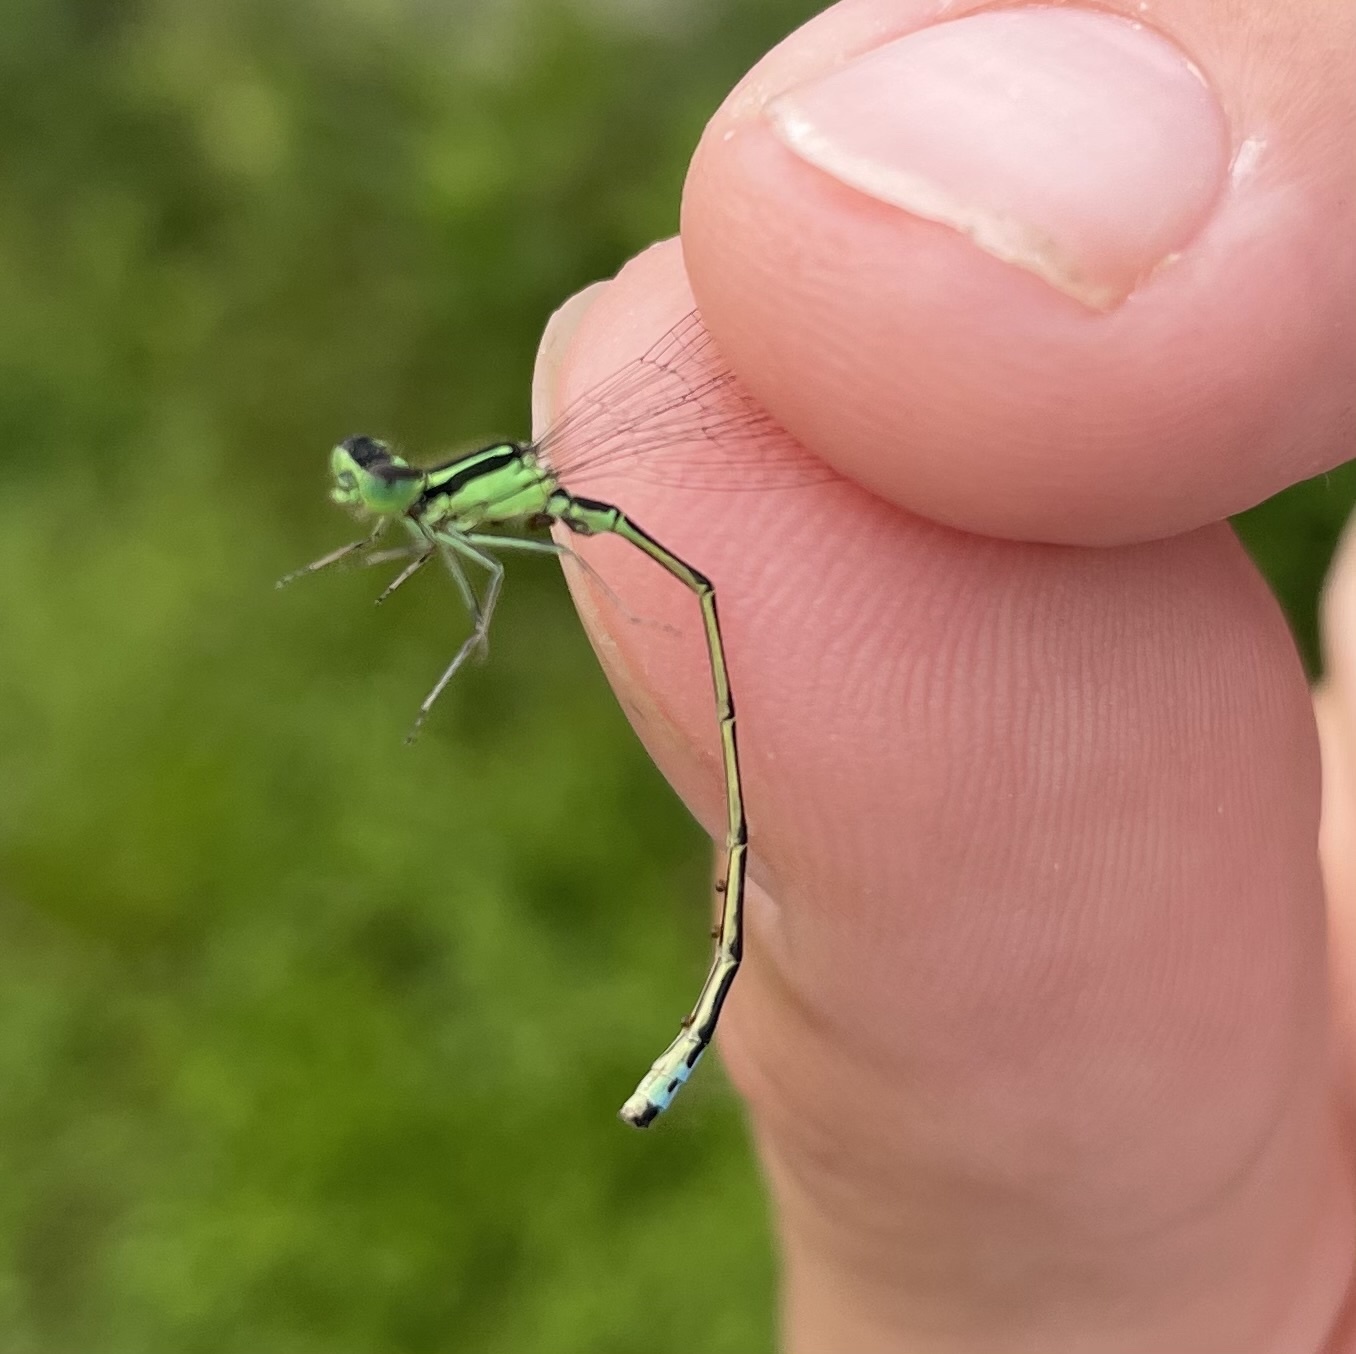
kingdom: Animalia
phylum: Arthropoda
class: Insecta
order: Odonata
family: Coenagrionidae
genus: Ischnura
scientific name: Ischnura verticalis
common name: Eastern forktail
